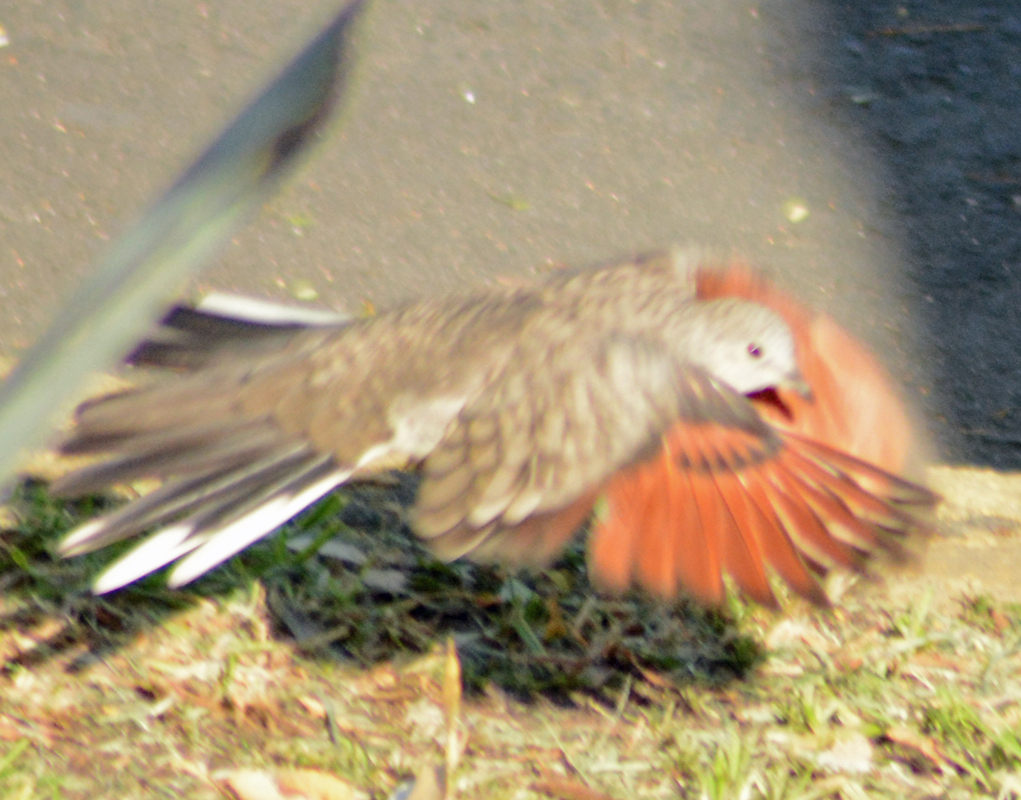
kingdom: Animalia
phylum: Chordata
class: Aves
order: Columbiformes
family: Columbidae
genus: Columbina
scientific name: Columbina inca
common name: Inca dove
